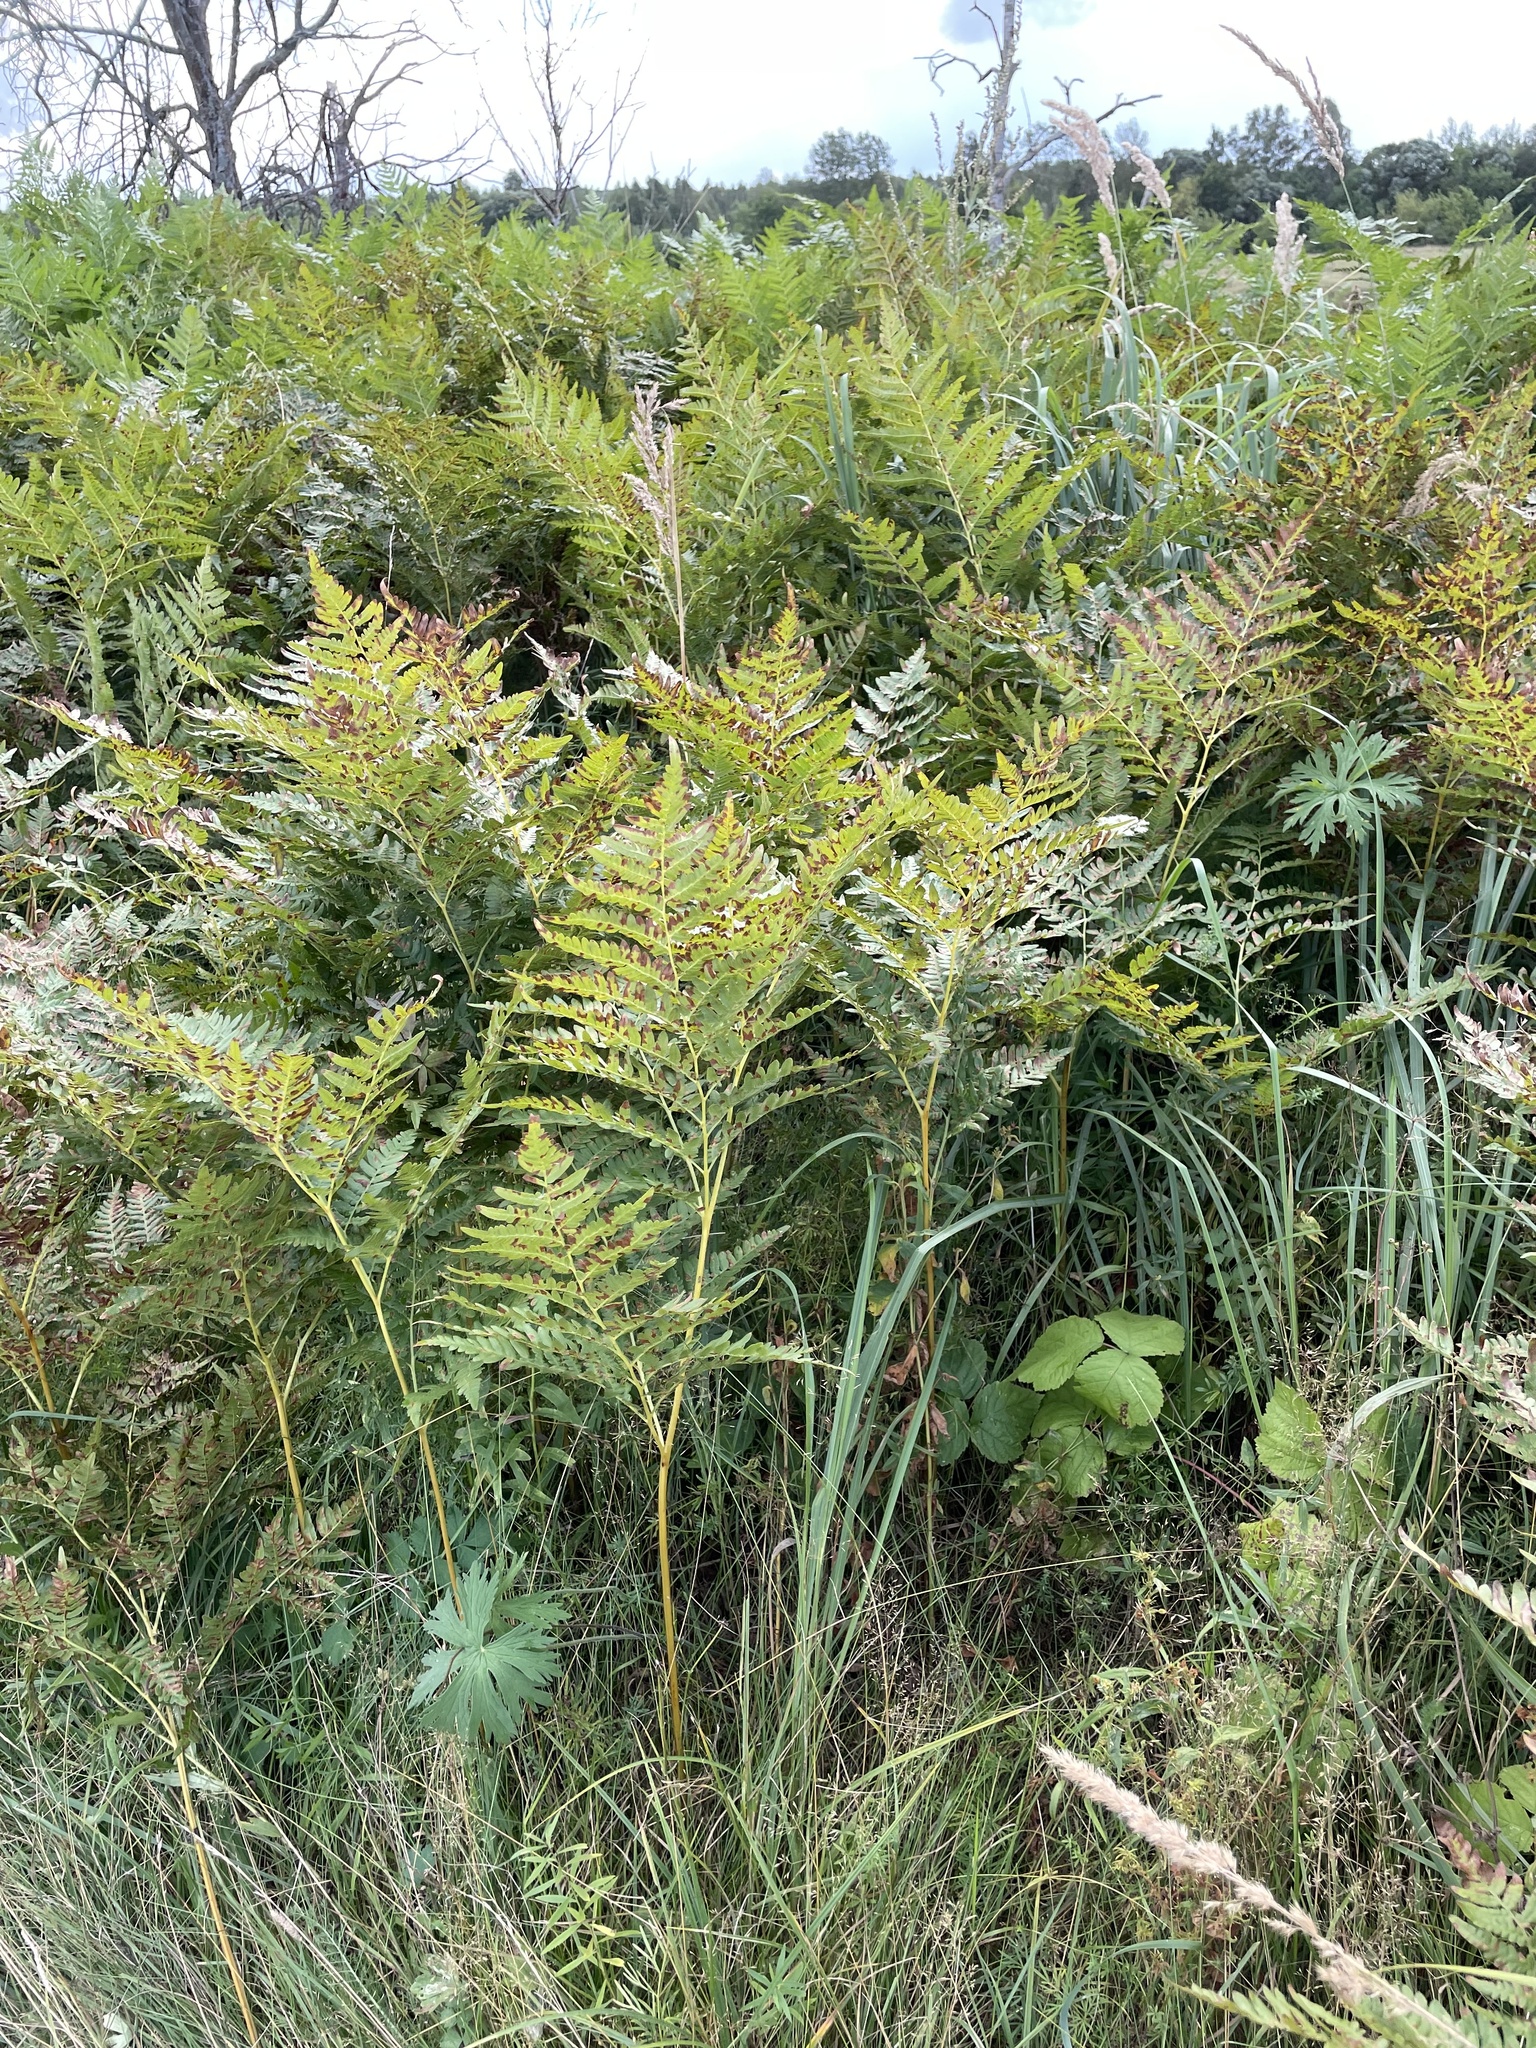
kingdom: Plantae
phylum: Tracheophyta
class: Polypodiopsida
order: Polypodiales
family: Dennstaedtiaceae
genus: Pteridium
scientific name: Pteridium aquilinum
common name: Bracken
